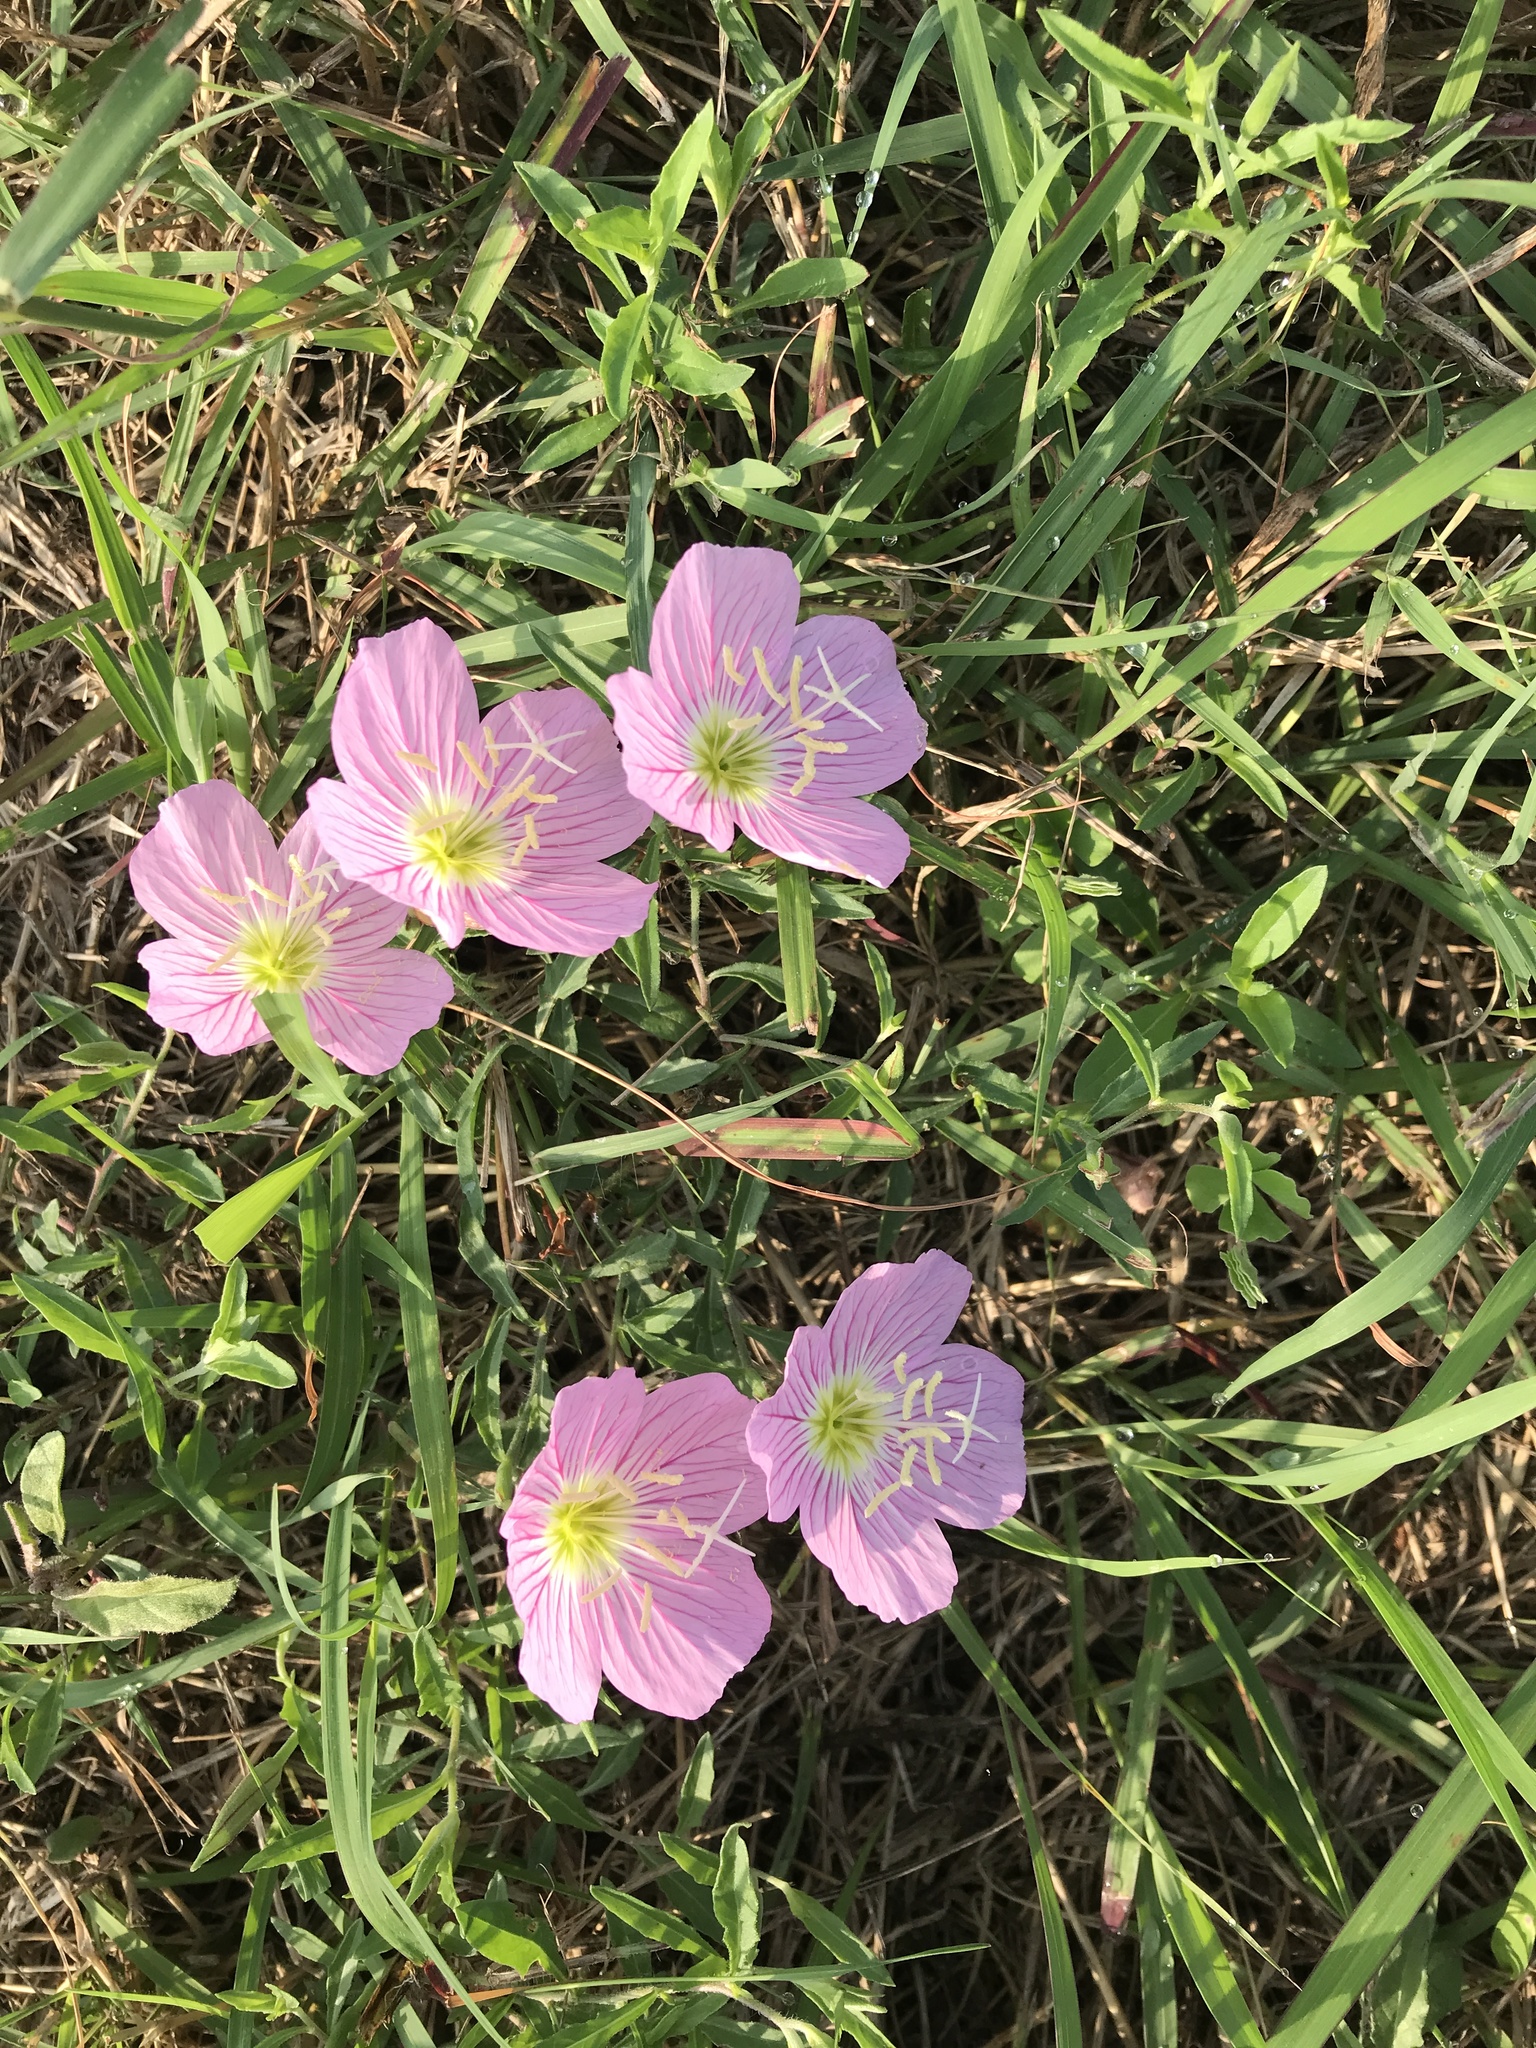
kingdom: Plantae
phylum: Tracheophyta
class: Magnoliopsida
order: Myrtales
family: Onagraceae
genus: Oenothera
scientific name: Oenothera speciosa
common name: White evening-primrose
